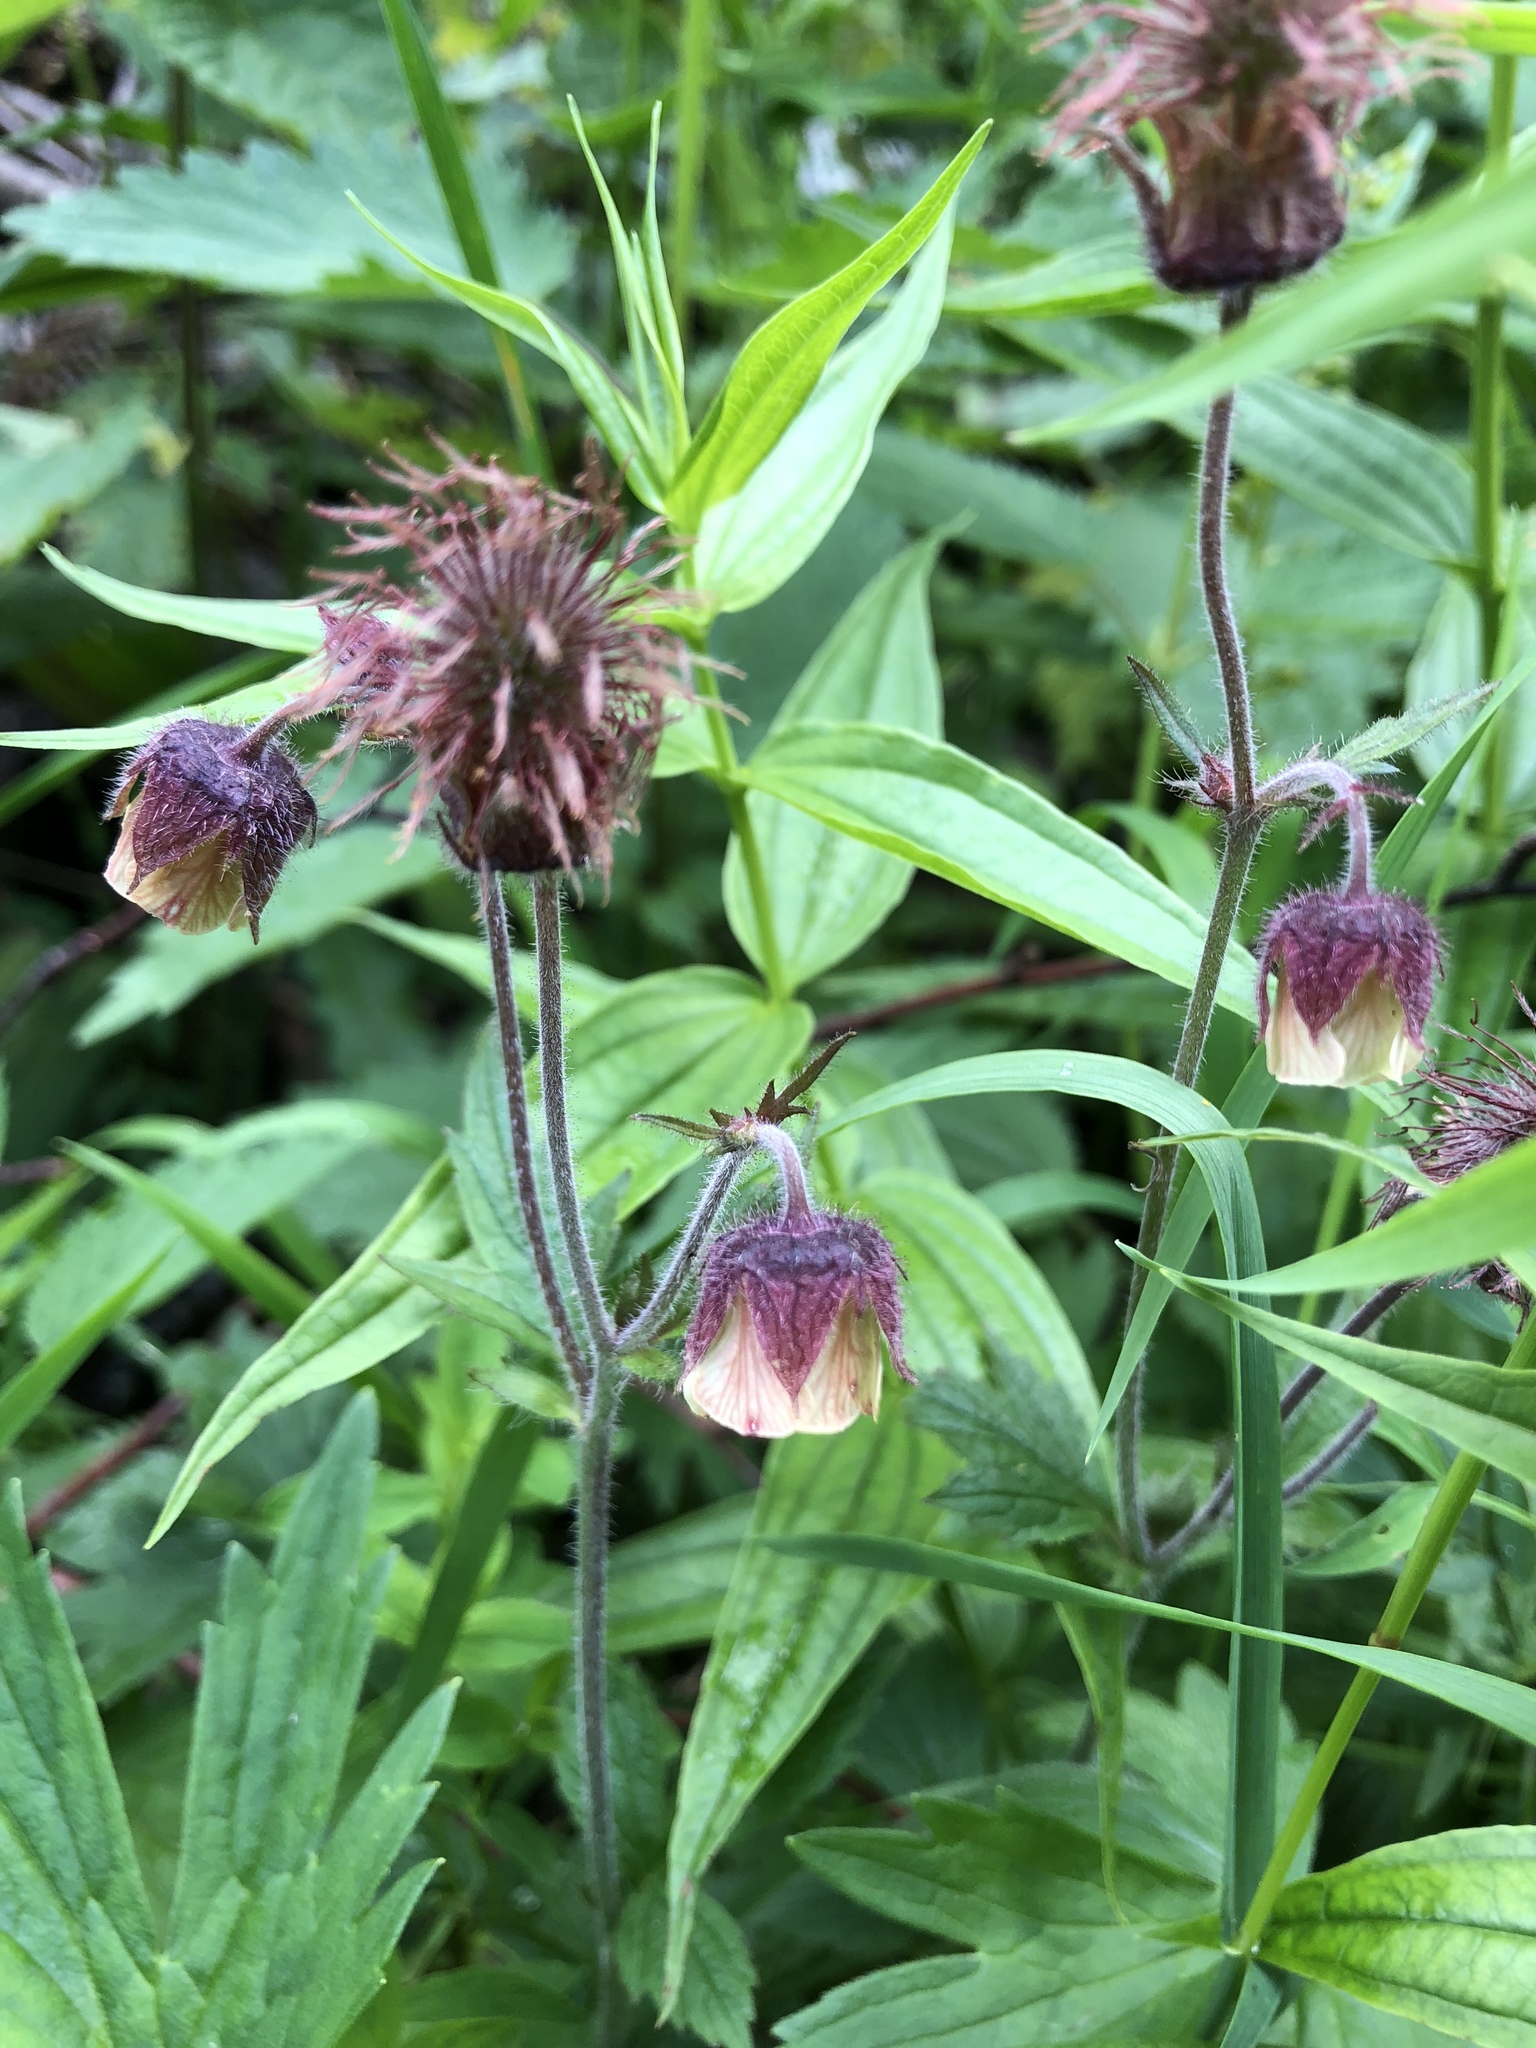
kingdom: Plantae
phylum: Tracheophyta
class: Magnoliopsida
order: Rosales
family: Rosaceae
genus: Geum
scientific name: Geum rivale
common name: Water avens
